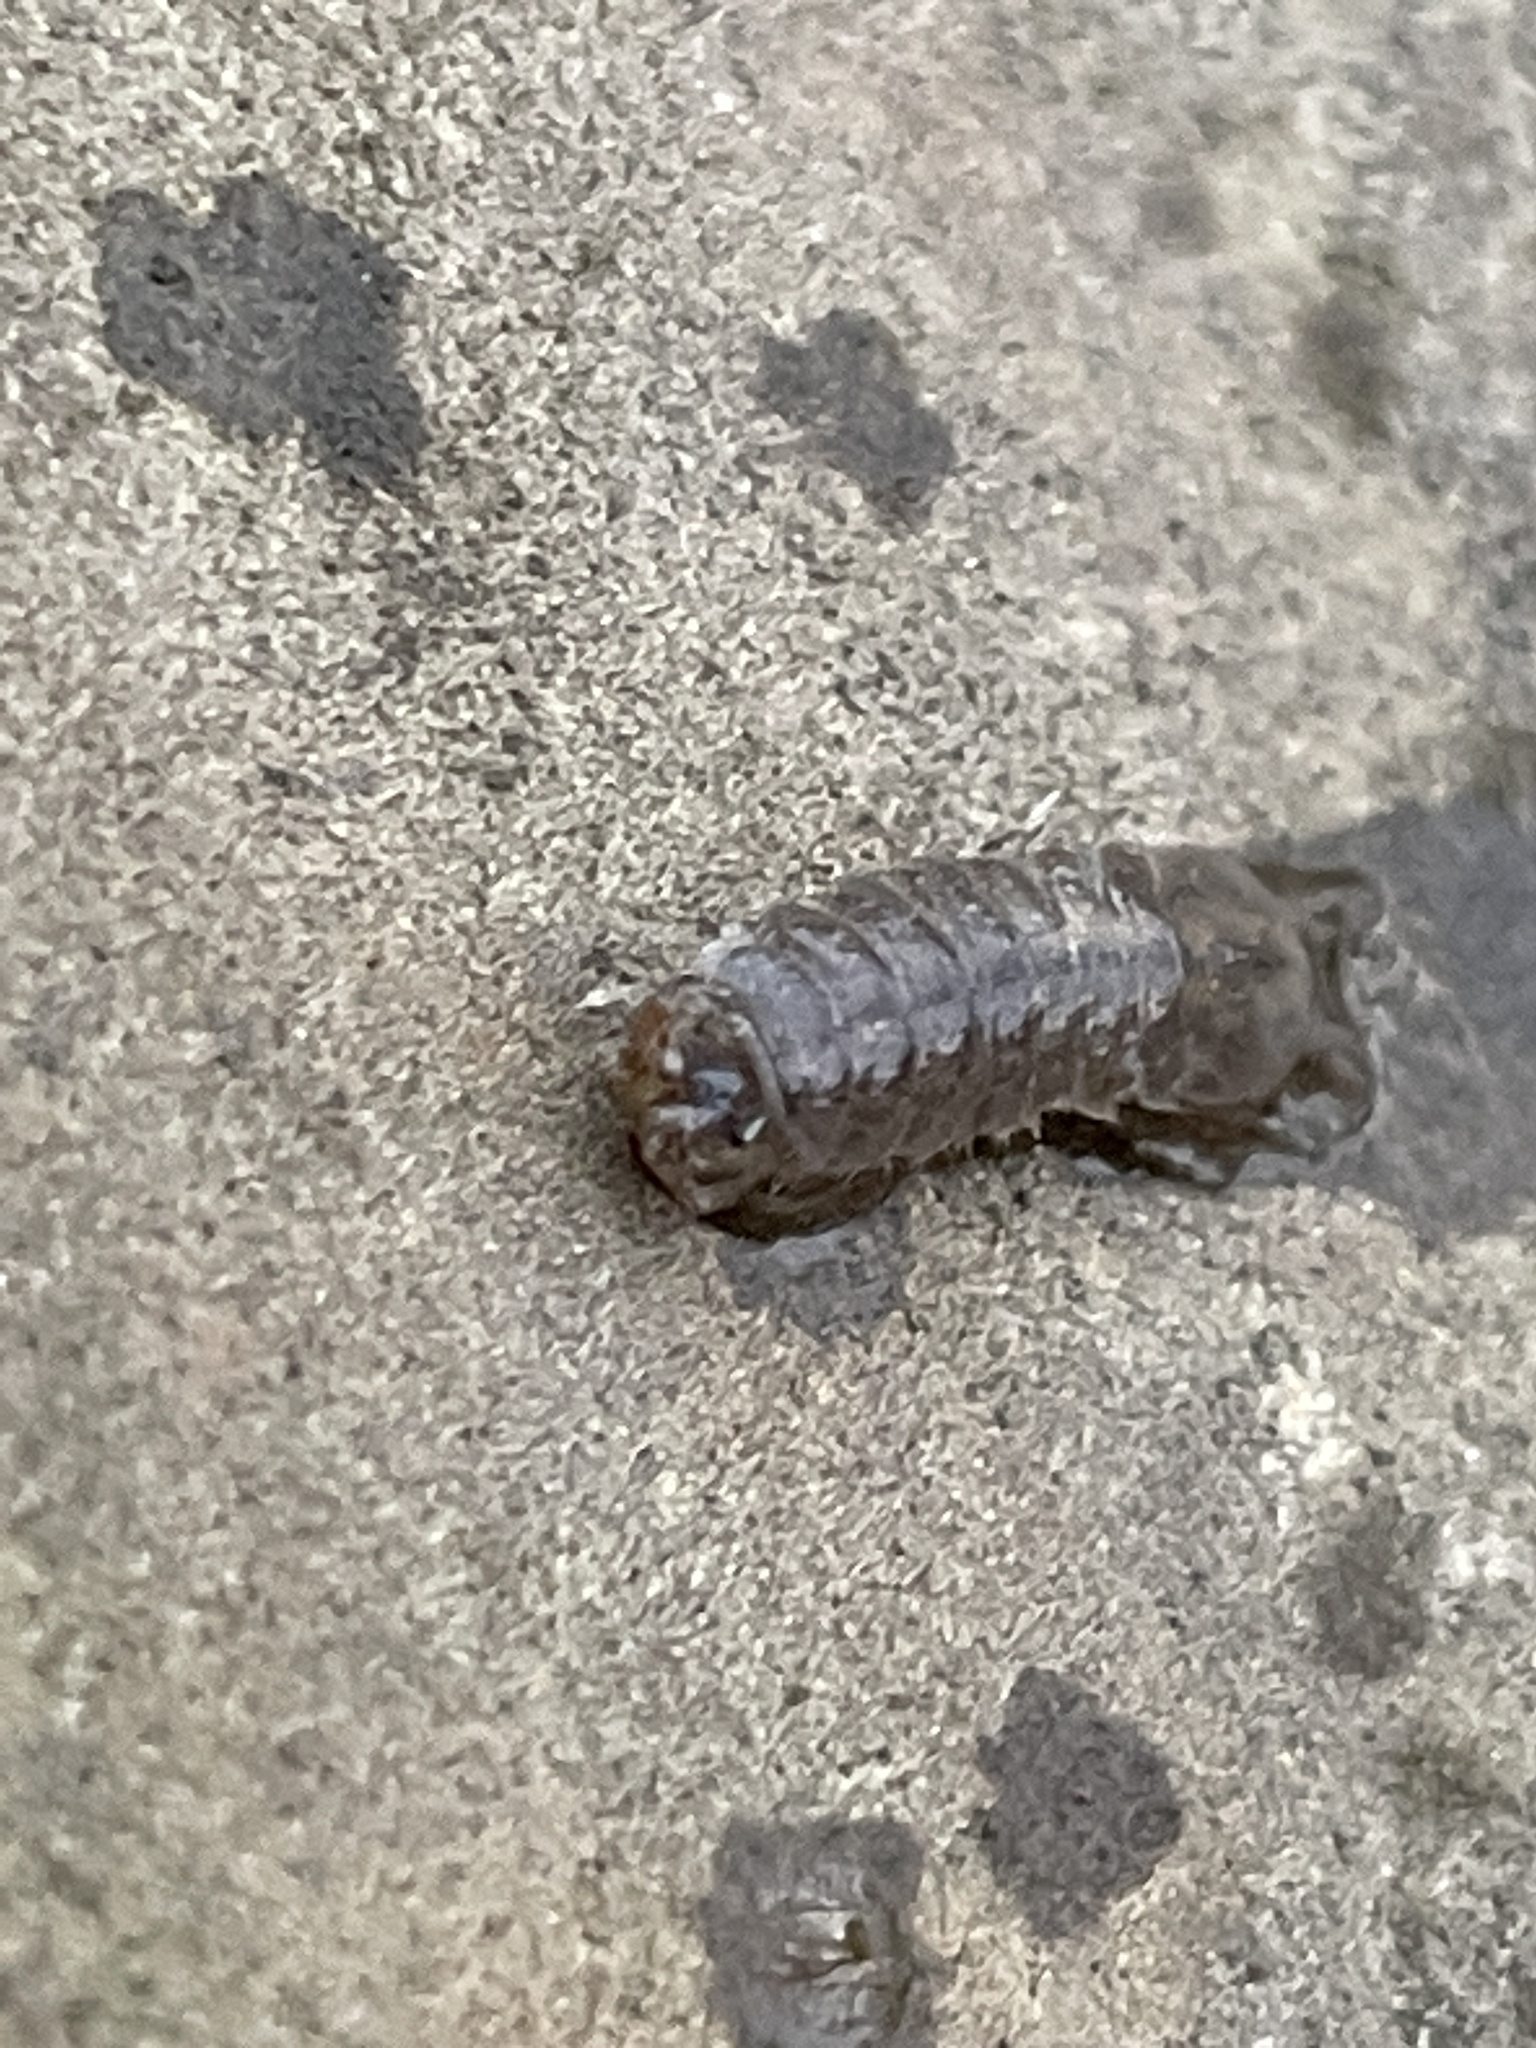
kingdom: Animalia
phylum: Arthropoda
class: Malacostraca
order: Isopoda
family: Asellidae
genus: Caecidotea
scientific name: Caecidotea
